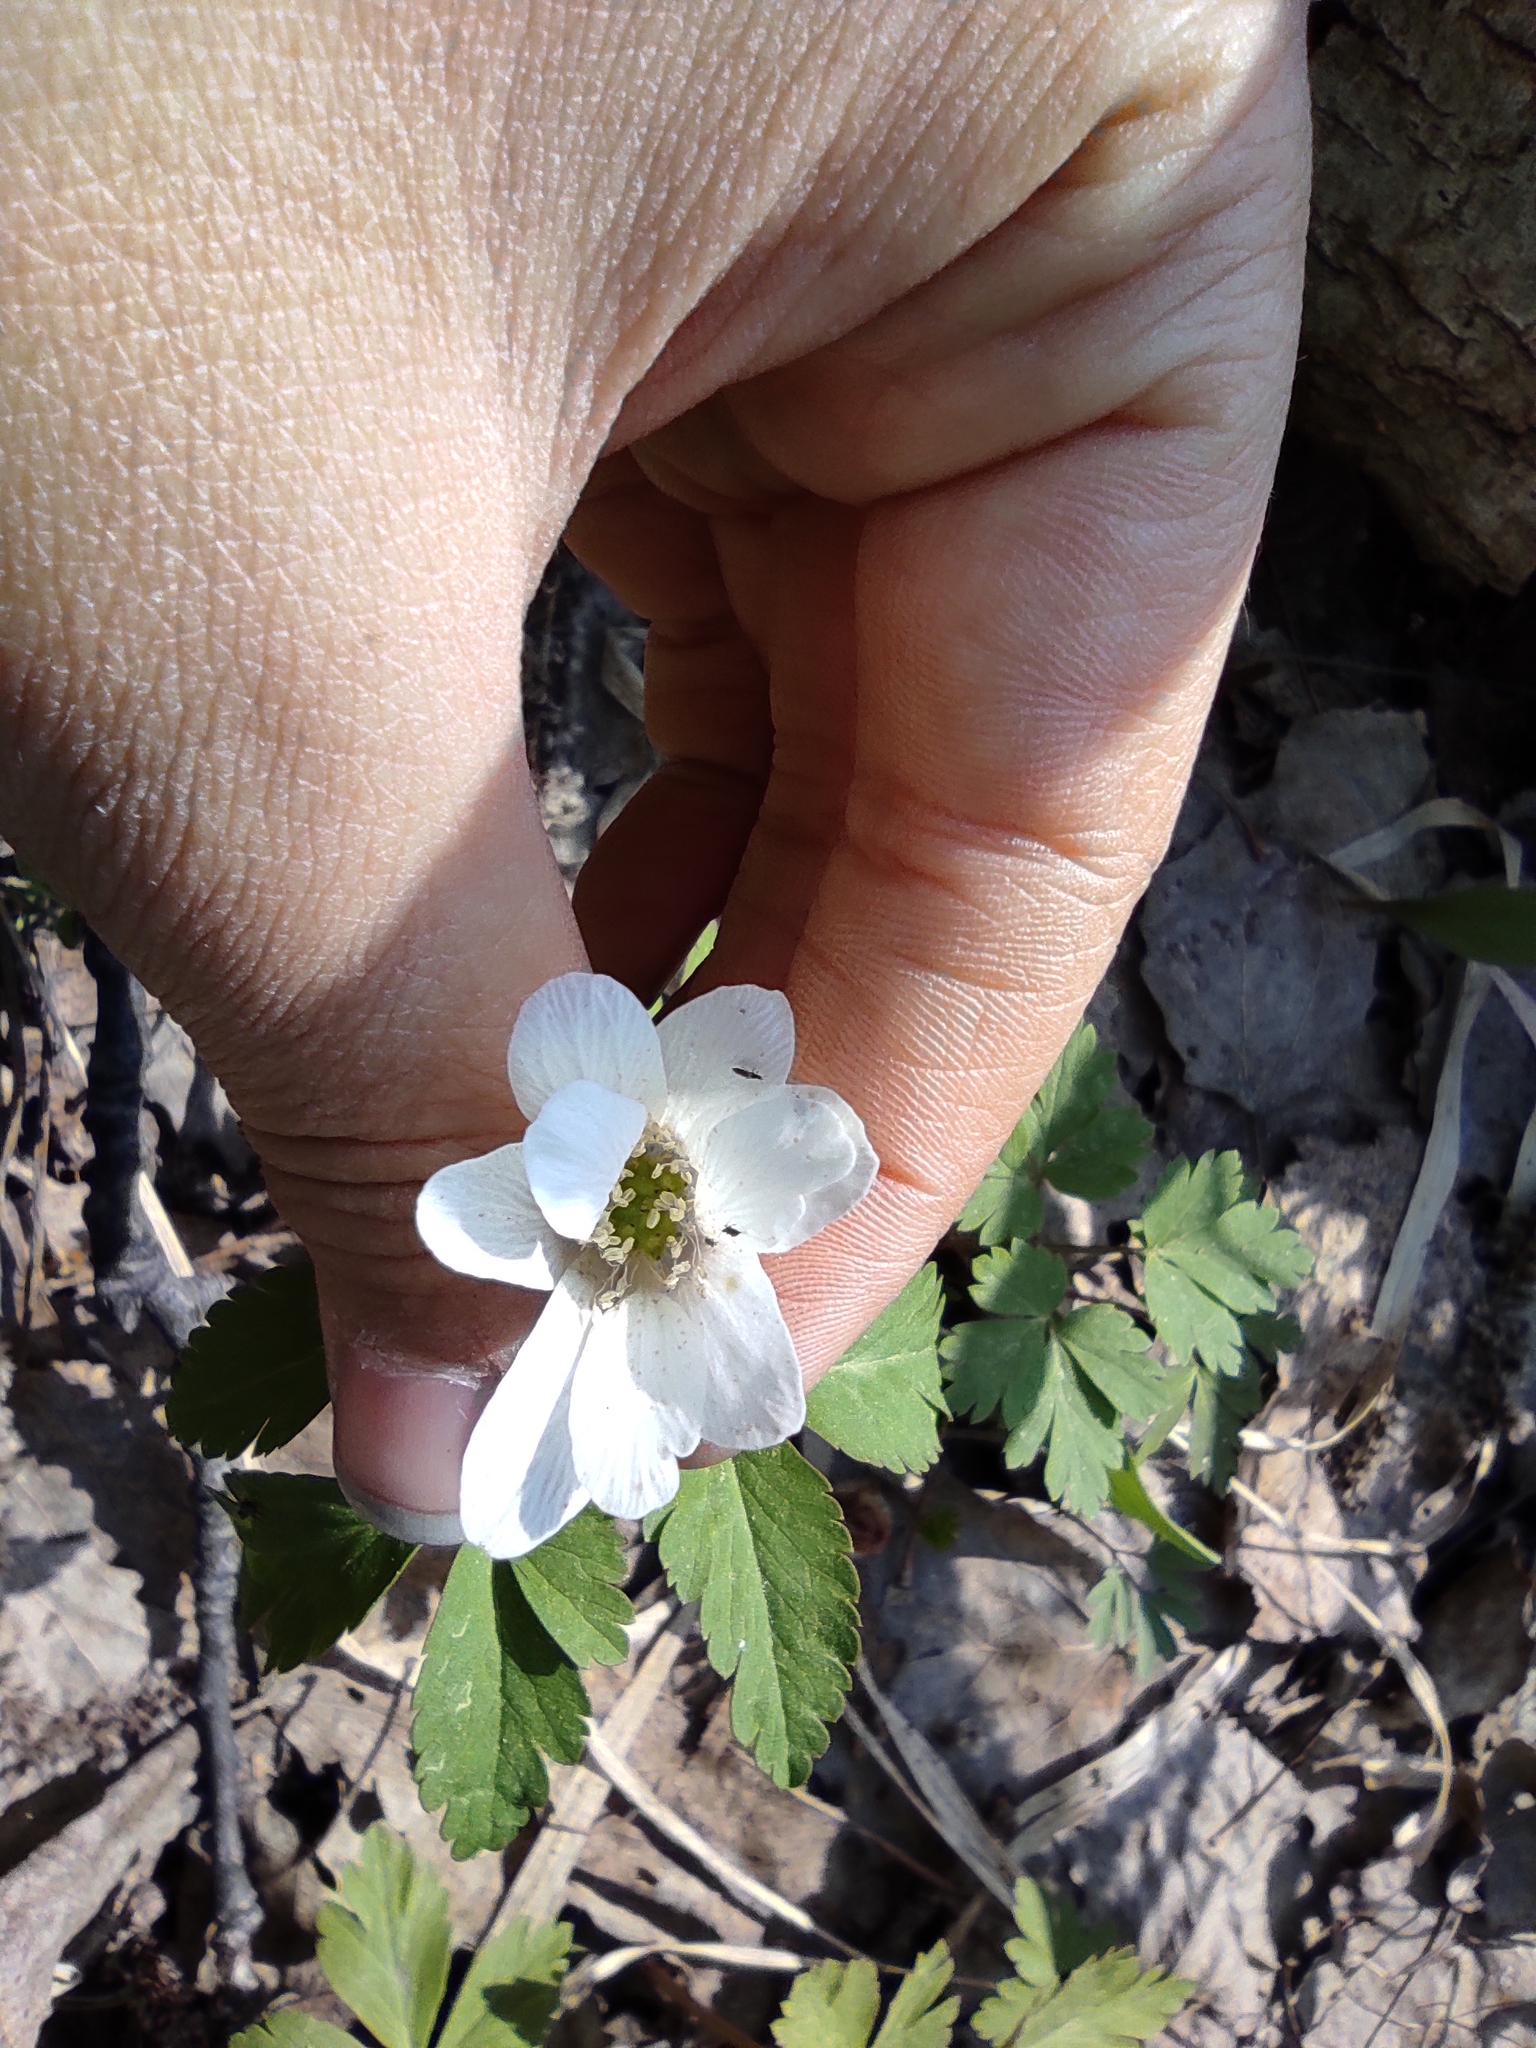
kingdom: Plantae
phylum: Tracheophyta
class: Magnoliopsida
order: Ranunculales
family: Ranunculaceae
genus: Anemone
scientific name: Anemone altaica
